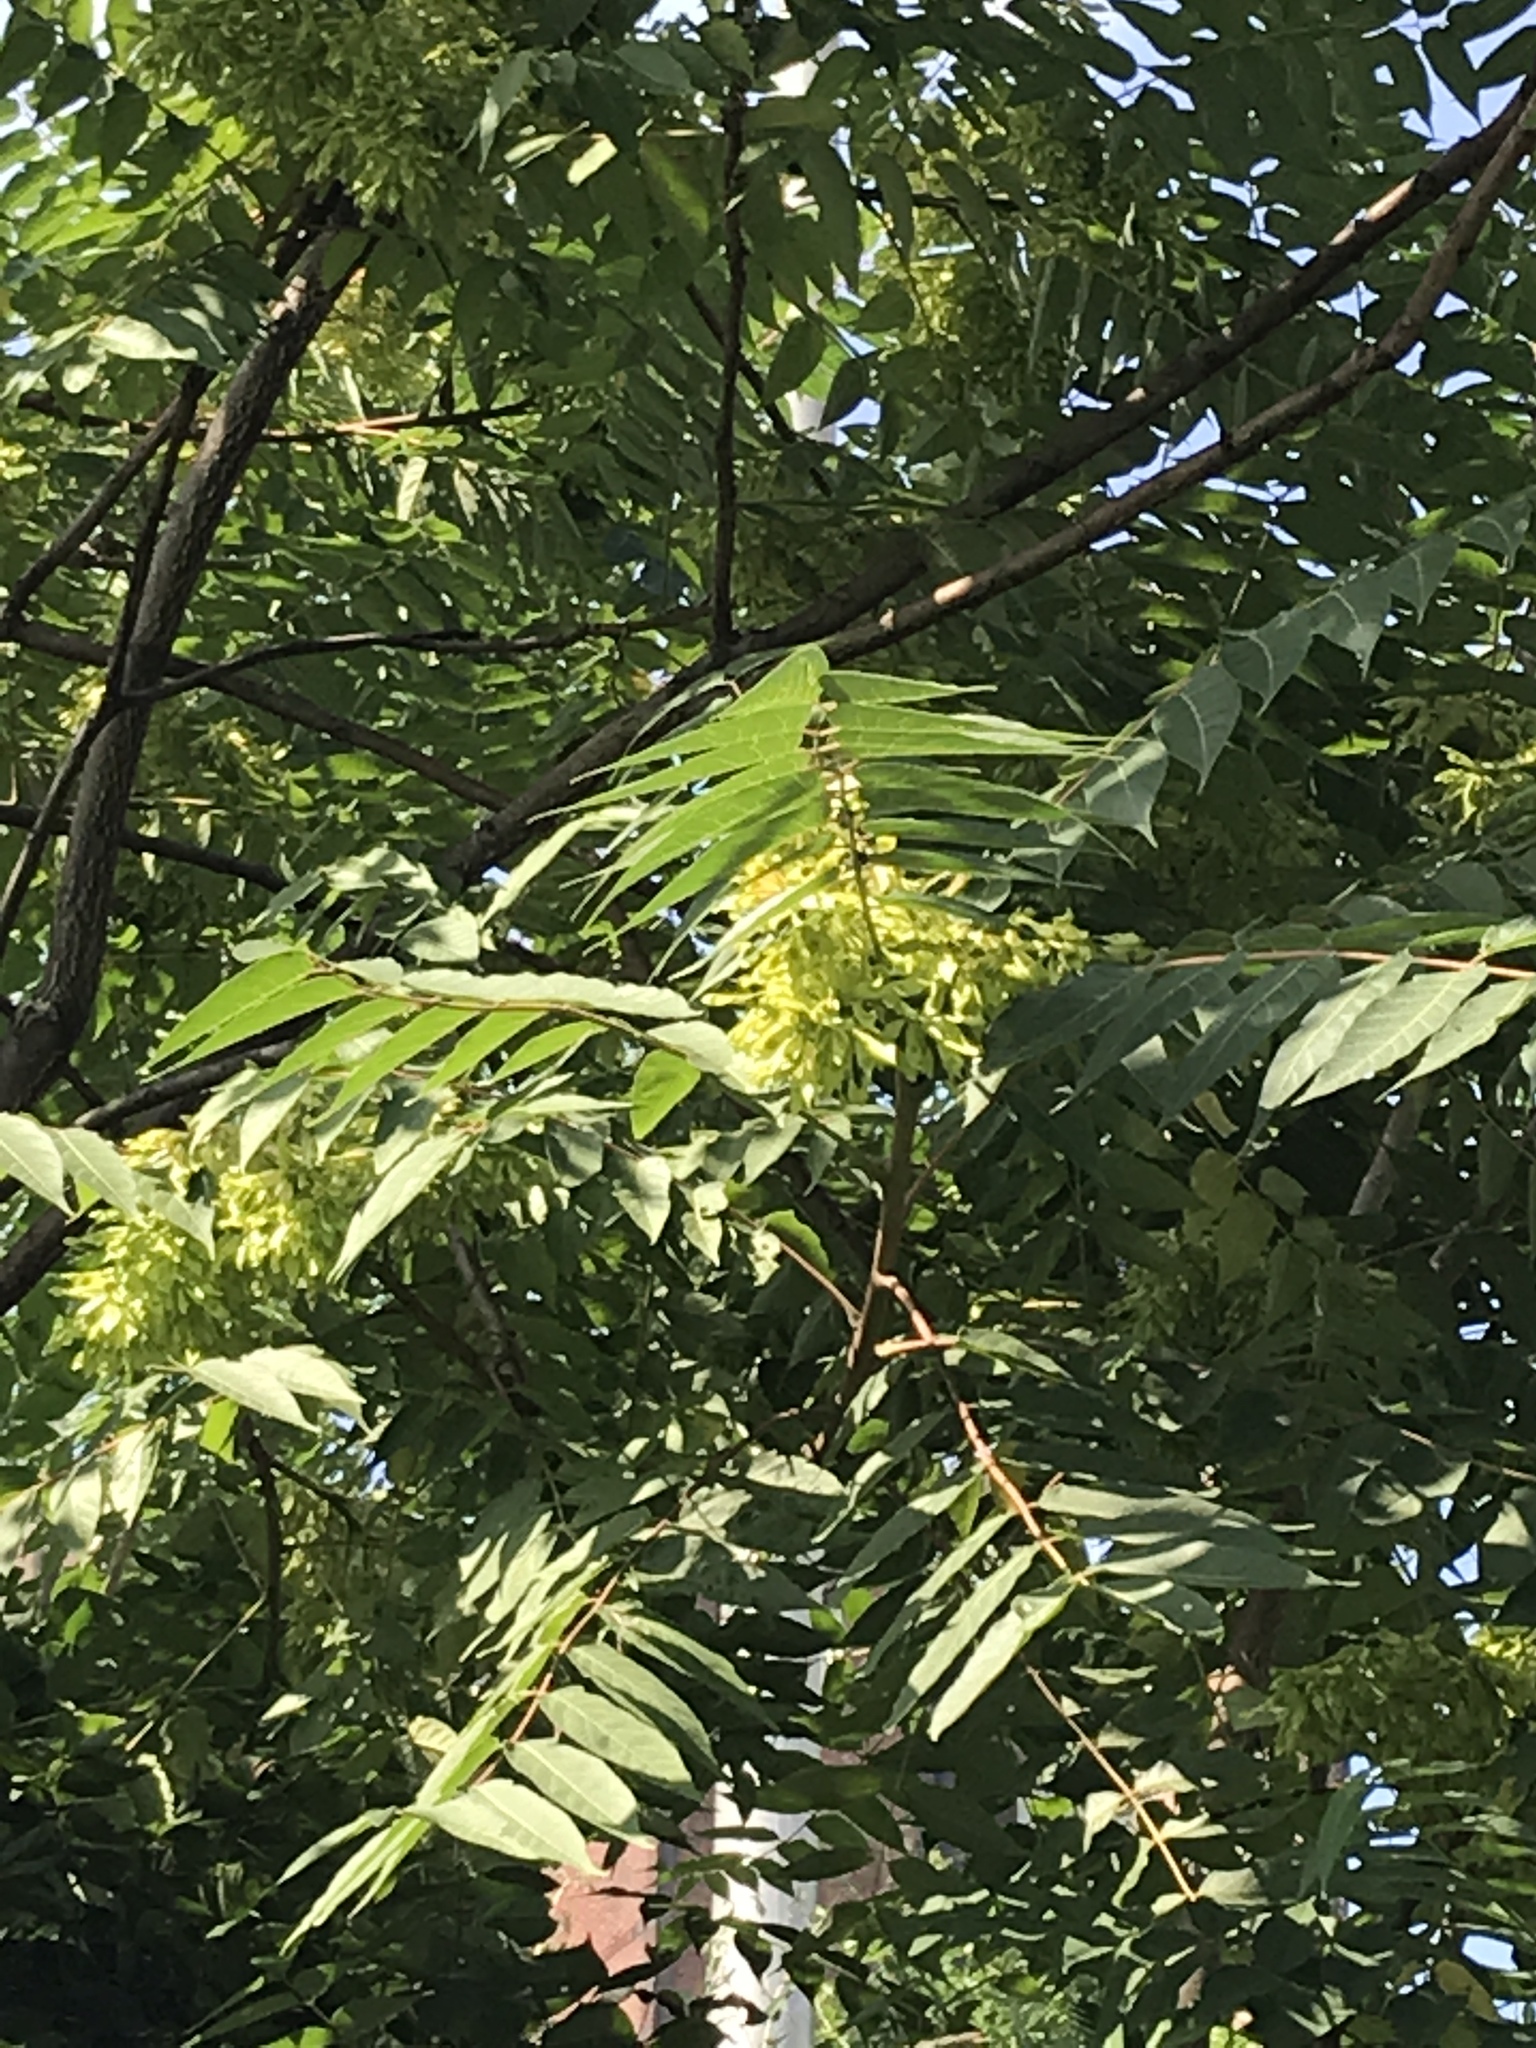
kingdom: Plantae
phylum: Tracheophyta
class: Magnoliopsida
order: Sapindales
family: Simaroubaceae
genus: Ailanthus
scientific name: Ailanthus altissima
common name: Tree-of-heaven
